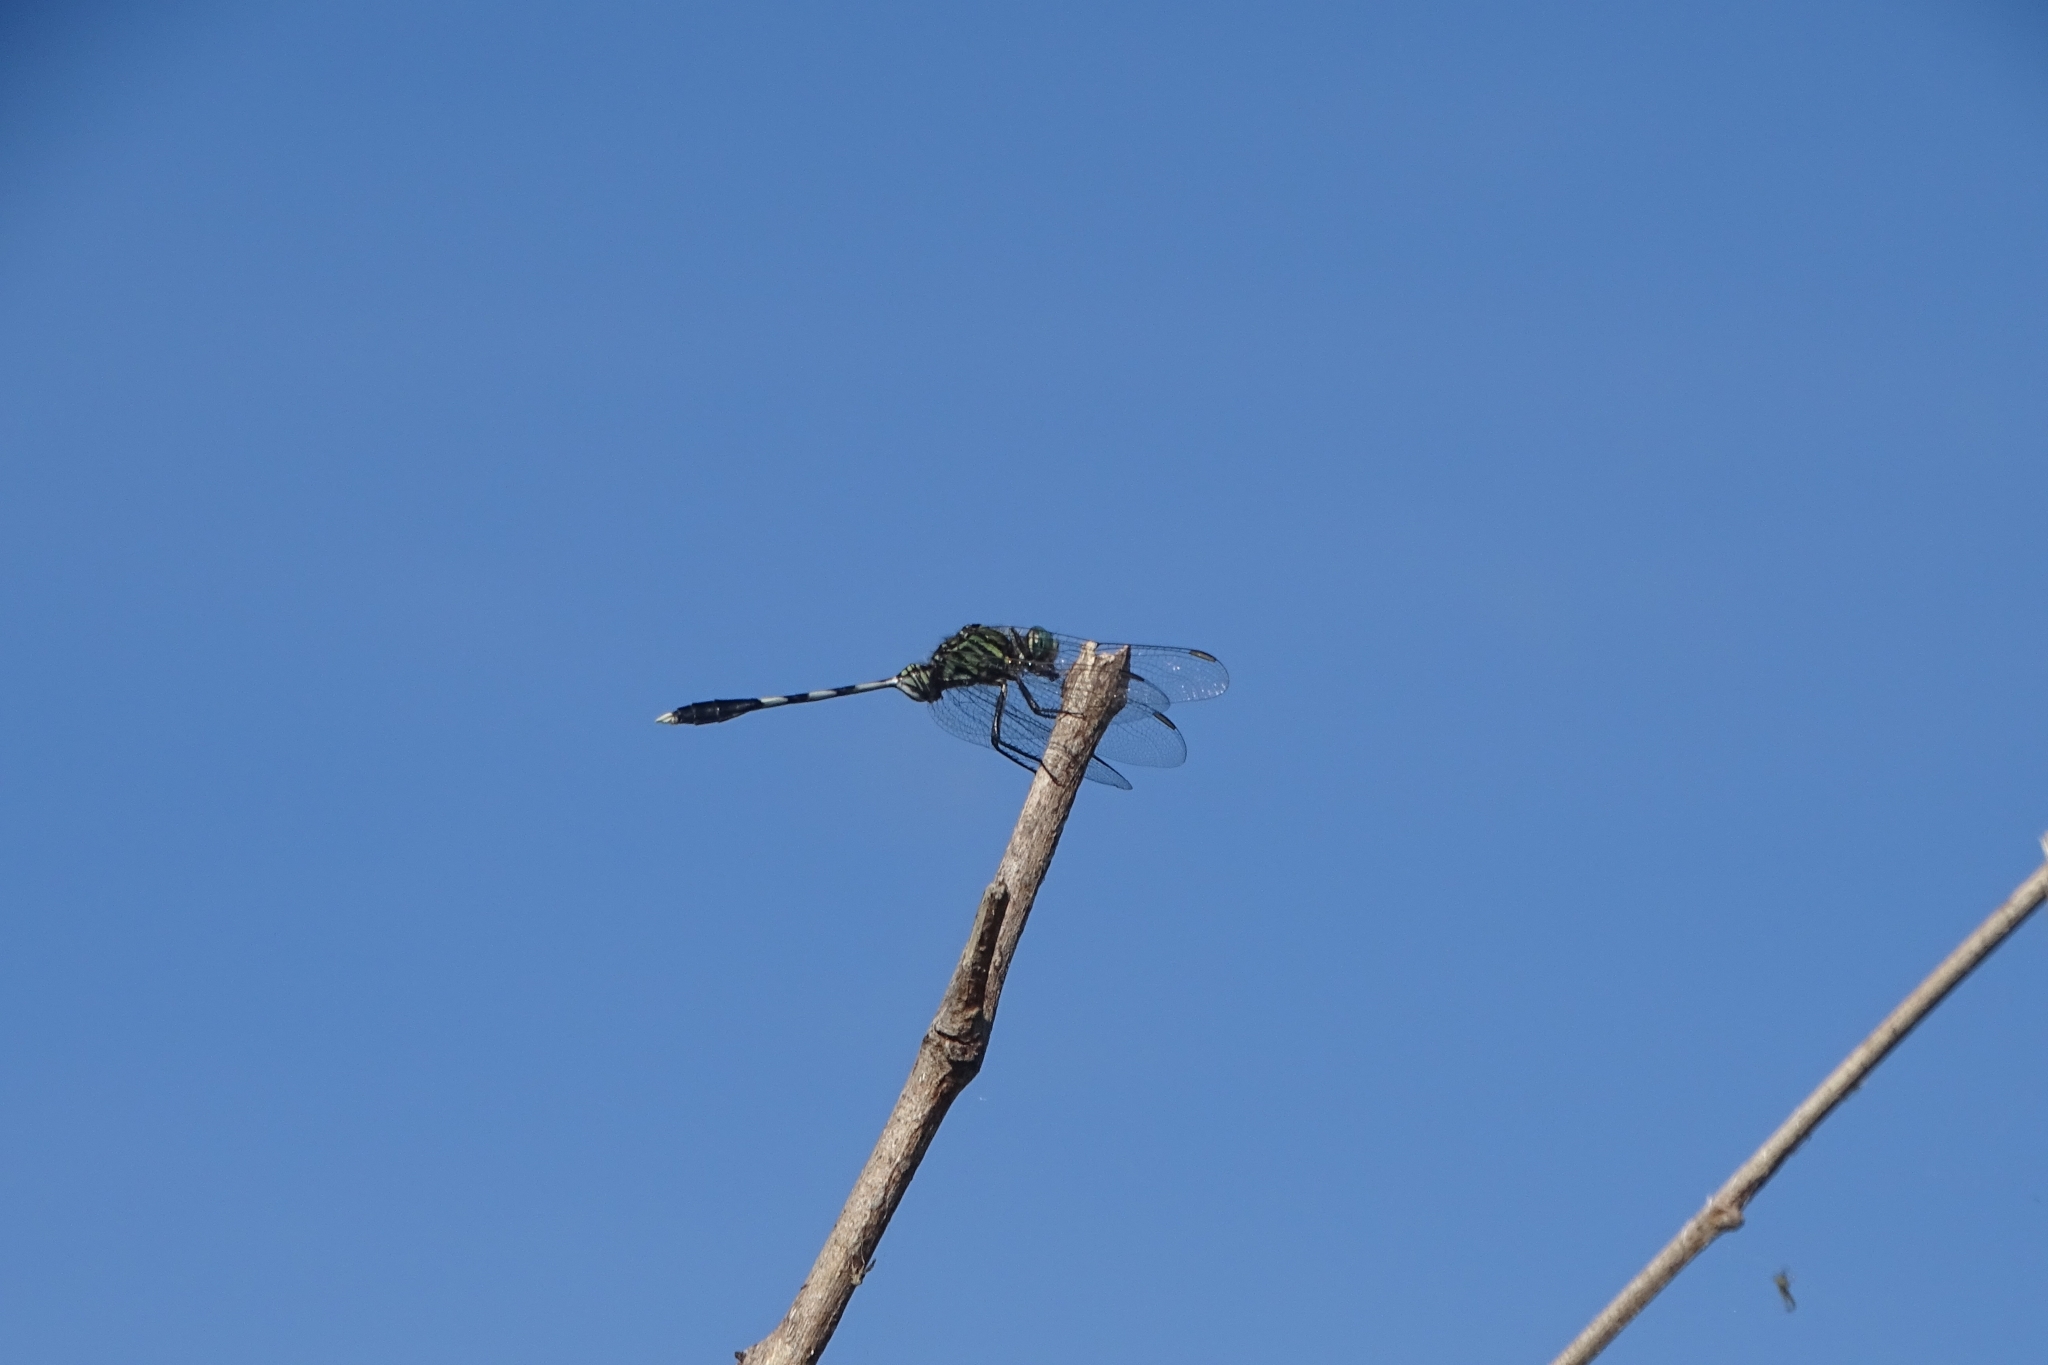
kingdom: Animalia
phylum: Arthropoda
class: Insecta
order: Odonata
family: Libellulidae
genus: Orthetrum
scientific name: Orthetrum sabina
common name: Slender skimmer
